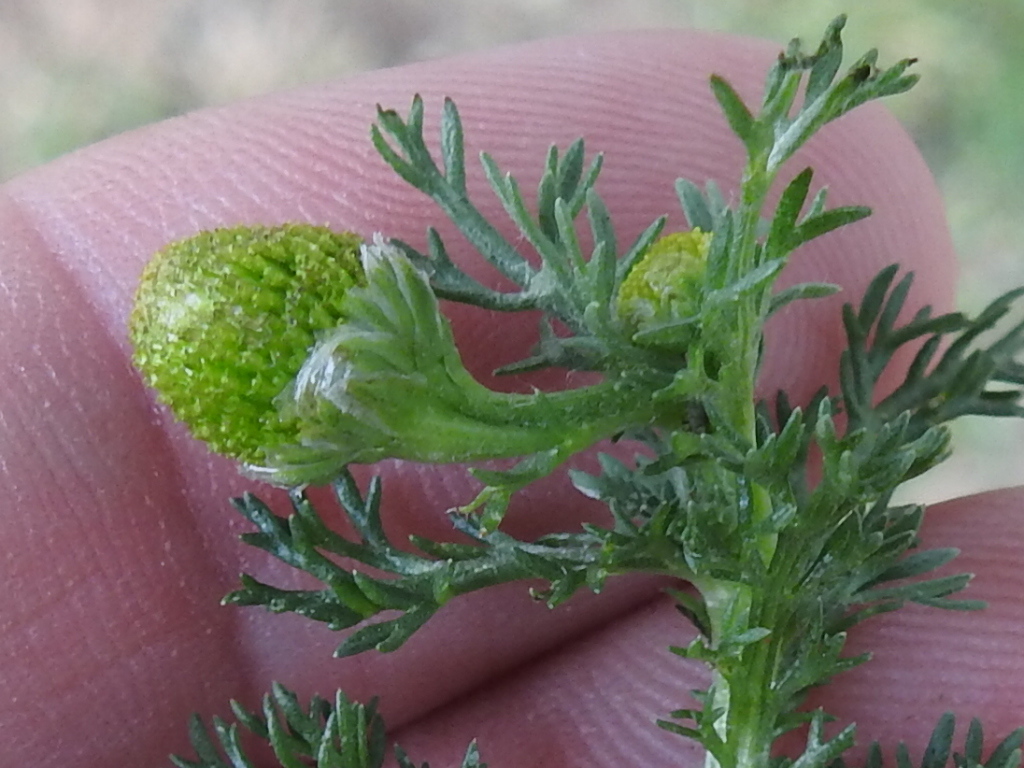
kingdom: Plantae
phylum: Tracheophyta
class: Magnoliopsida
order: Asterales
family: Asteraceae
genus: Matricaria
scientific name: Matricaria discoidea
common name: Disc mayweed
